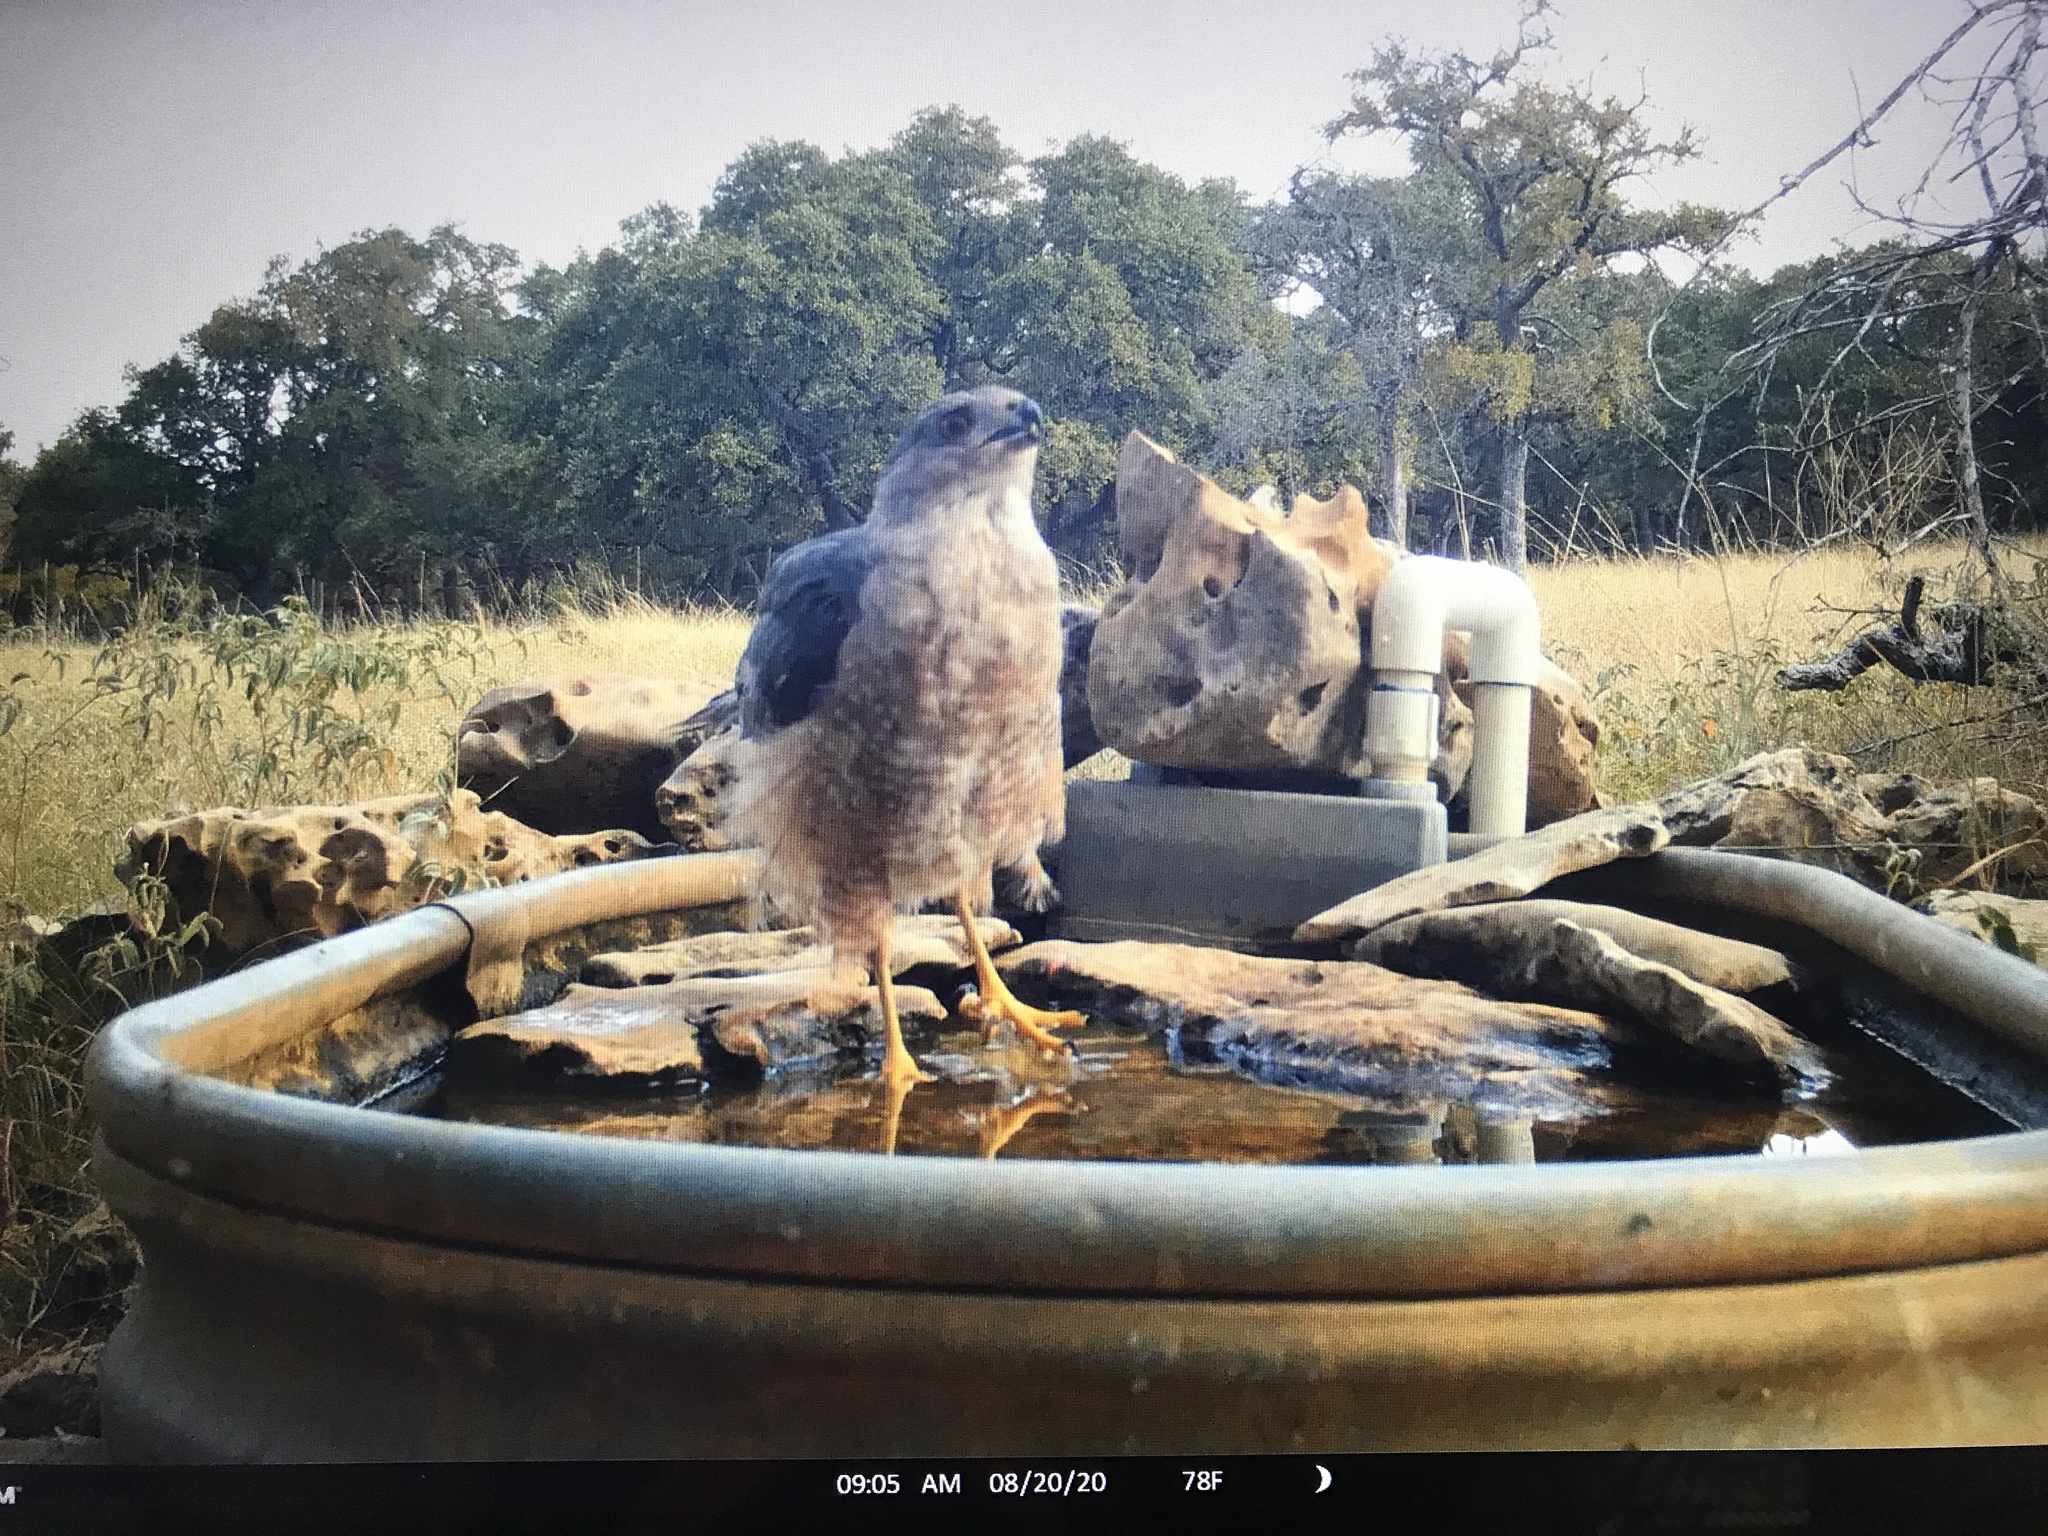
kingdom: Animalia
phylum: Chordata
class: Aves
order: Accipitriformes
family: Accipitridae
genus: Accipiter
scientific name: Accipiter cooperii
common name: Cooper's hawk
